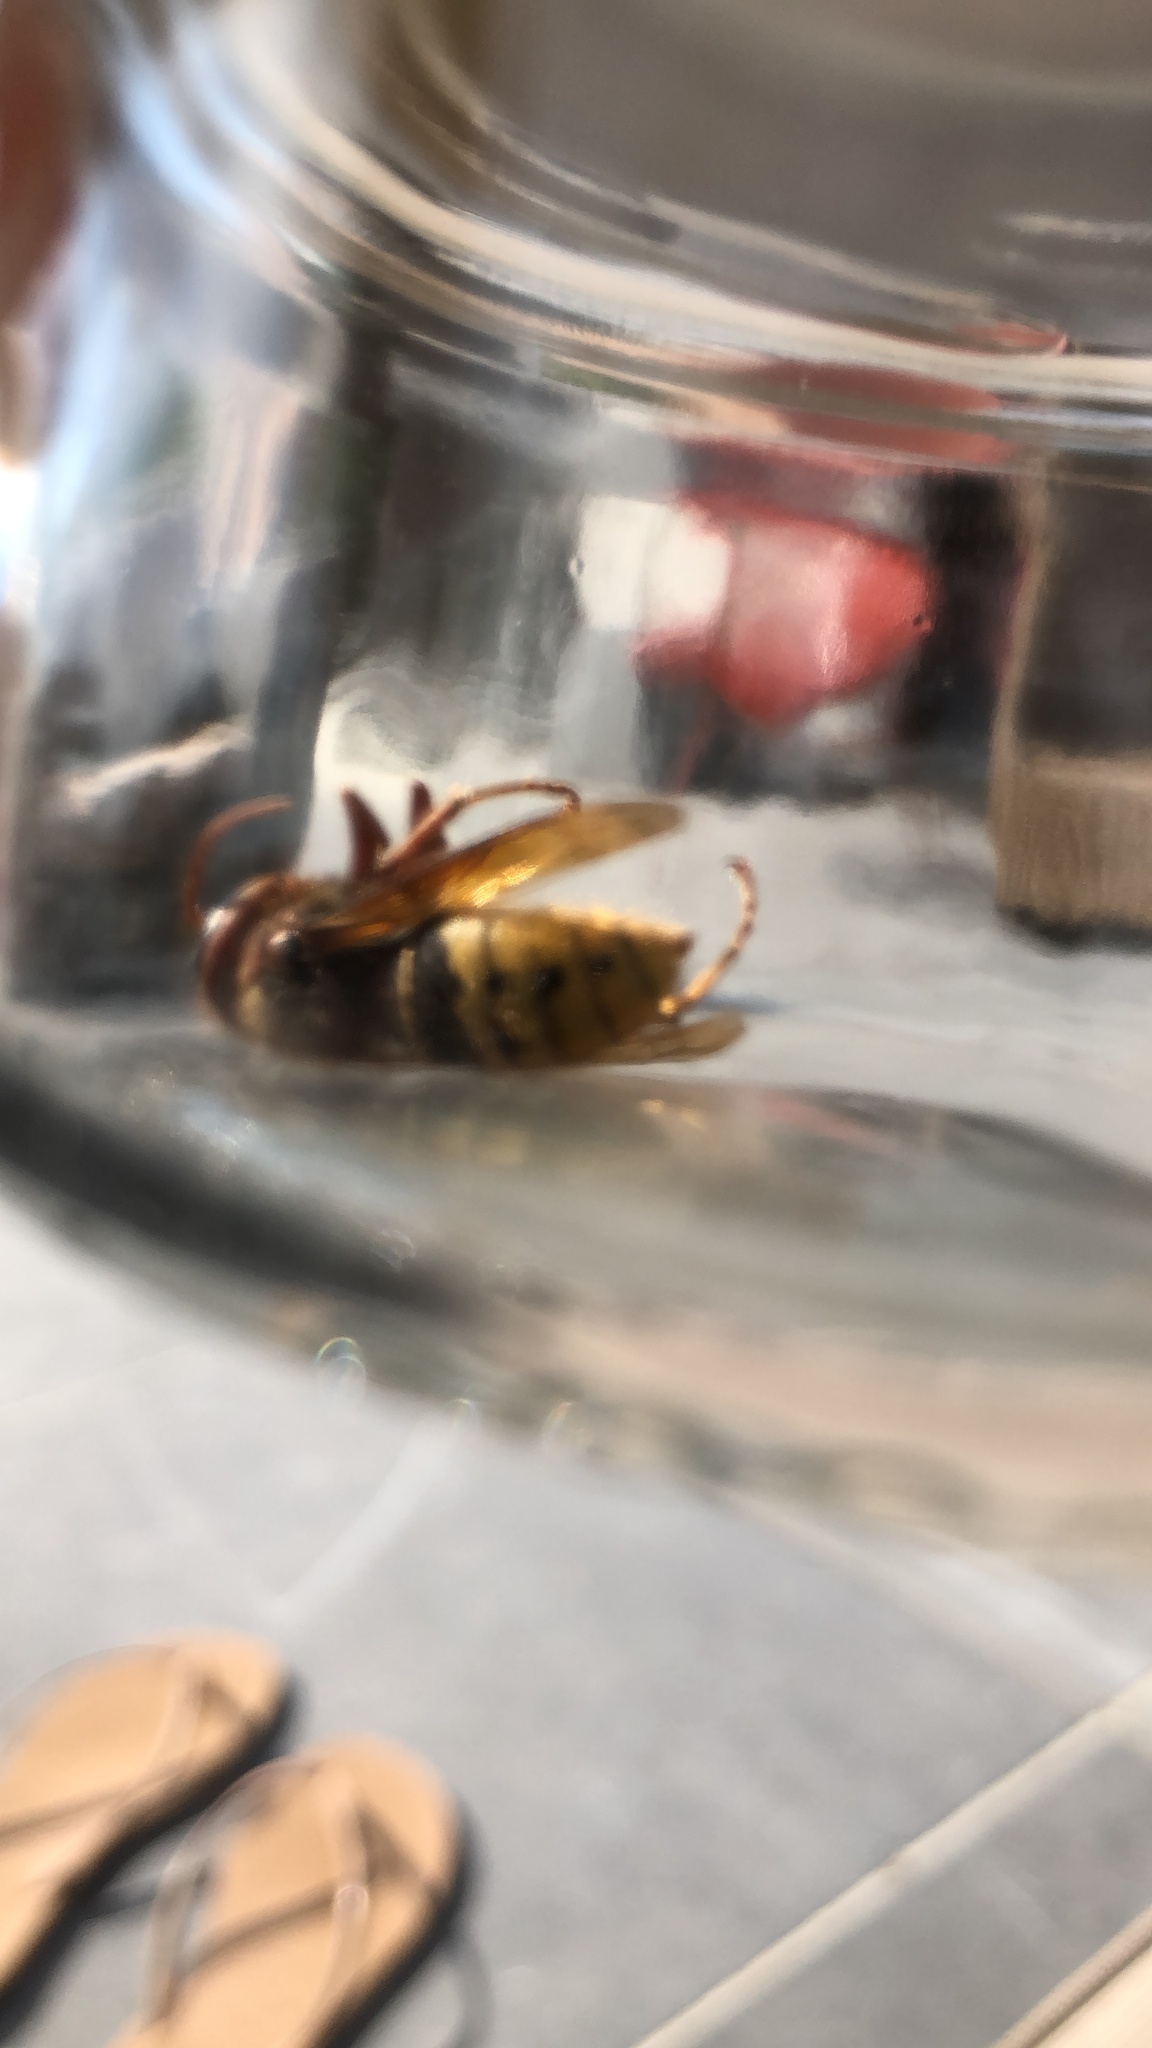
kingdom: Animalia
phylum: Arthropoda
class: Insecta
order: Hymenoptera
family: Vespidae
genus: Vespa
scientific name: Vespa crabro
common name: Hornet
